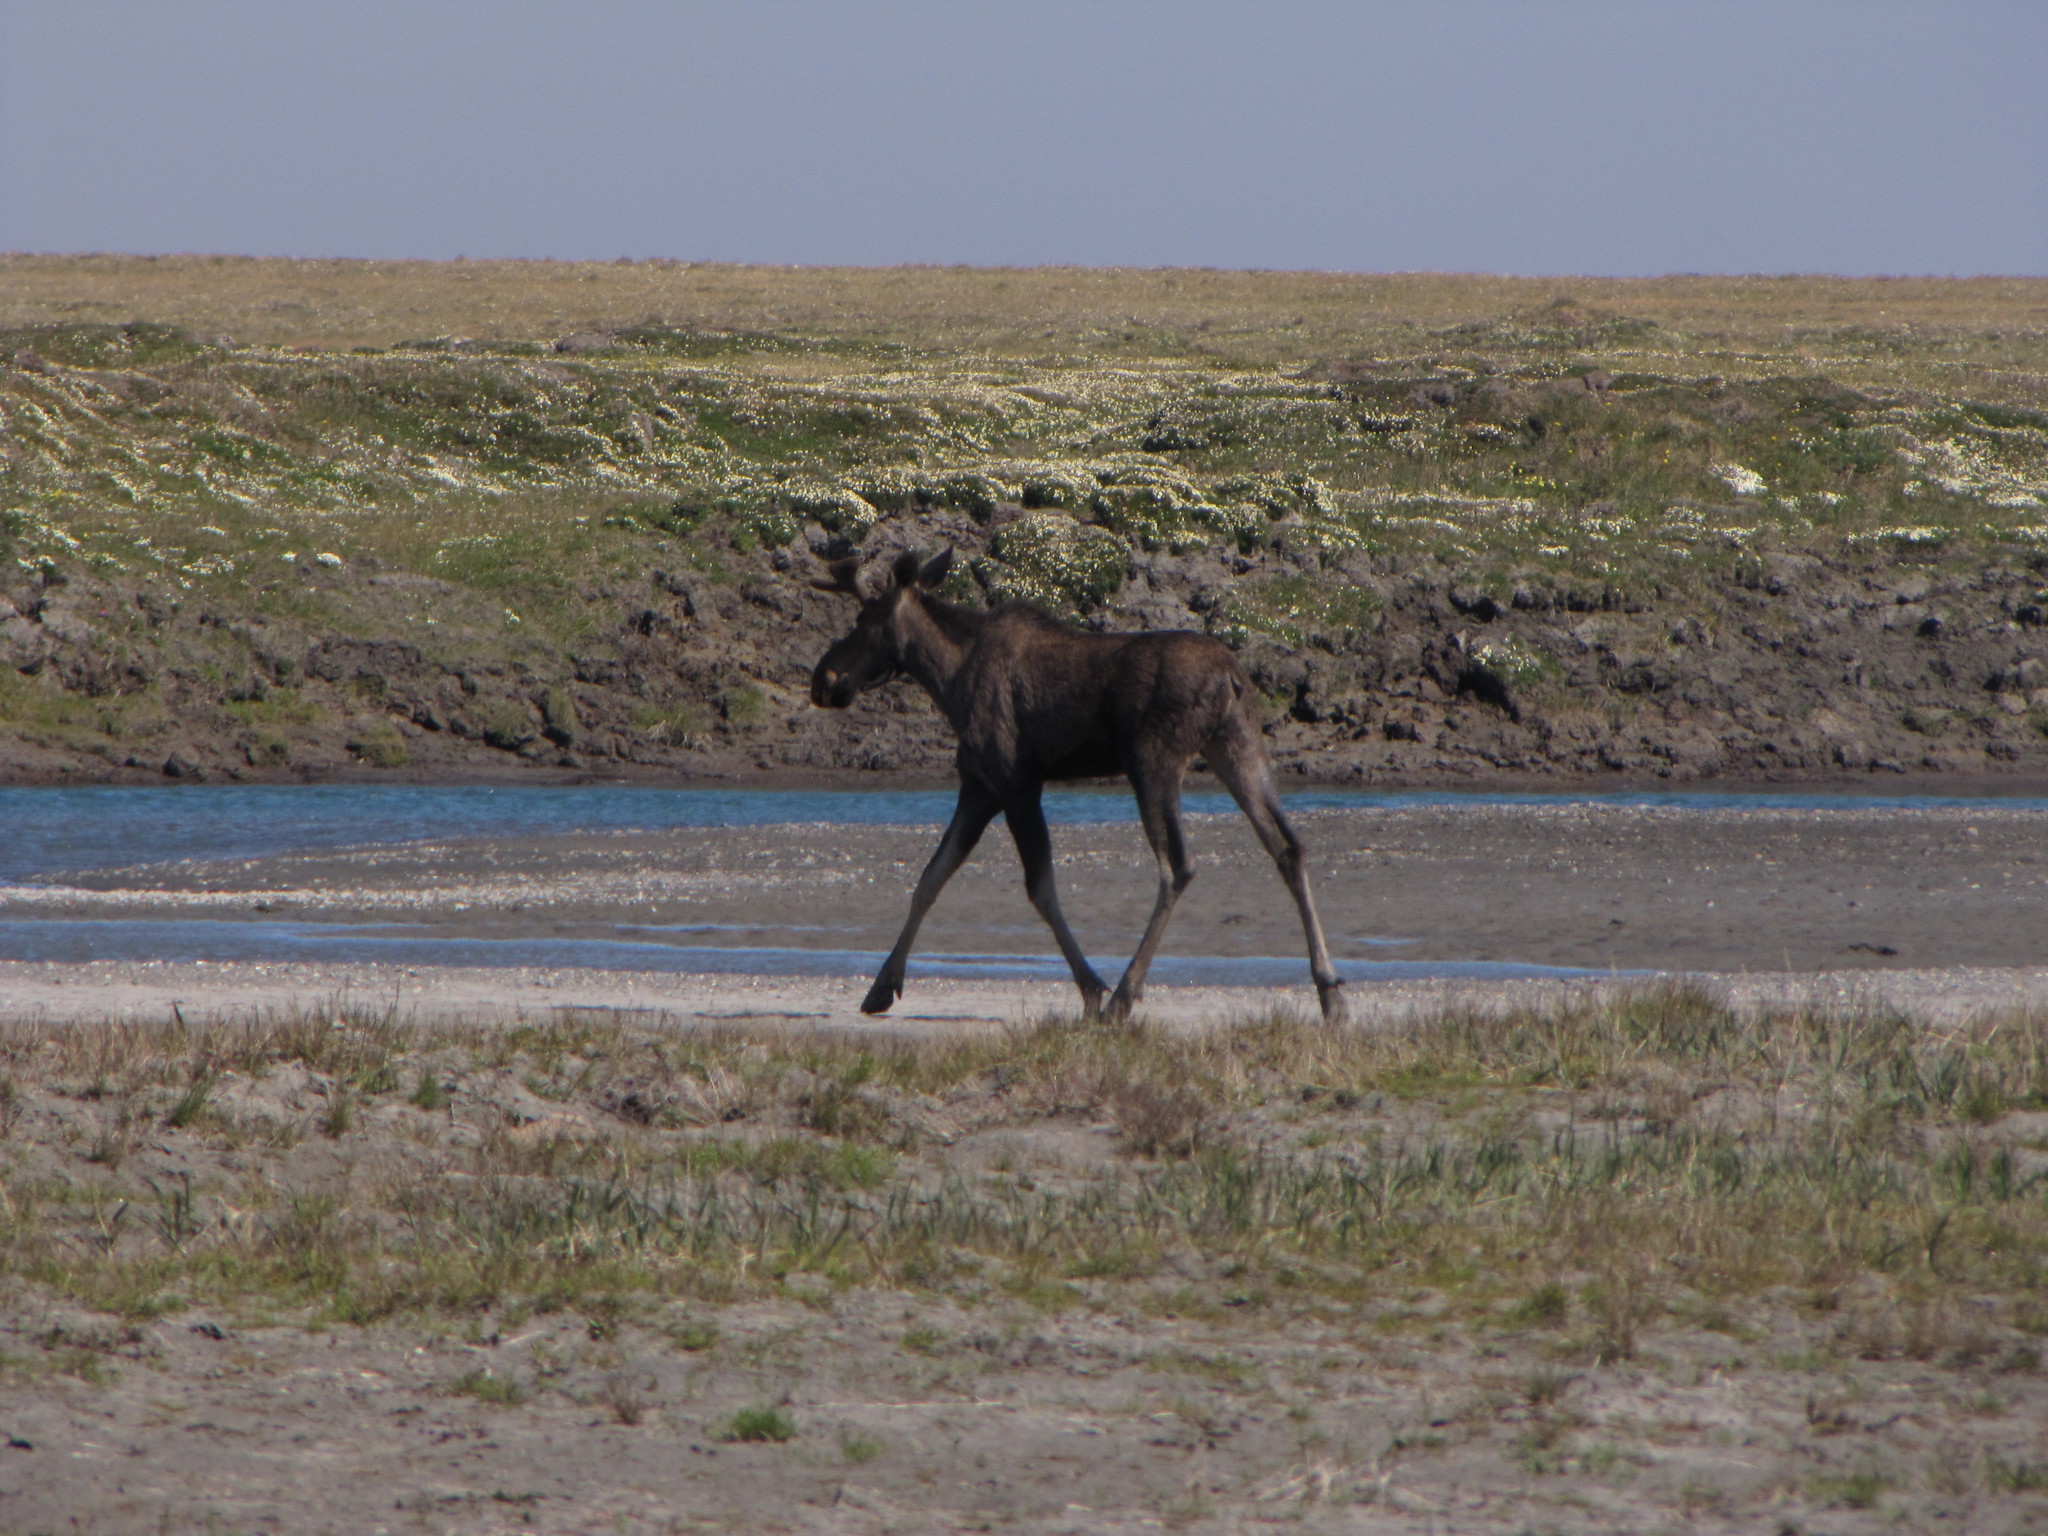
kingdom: Animalia
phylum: Chordata
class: Mammalia
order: Artiodactyla
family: Cervidae
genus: Alces
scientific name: Alces alces
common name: Moose
